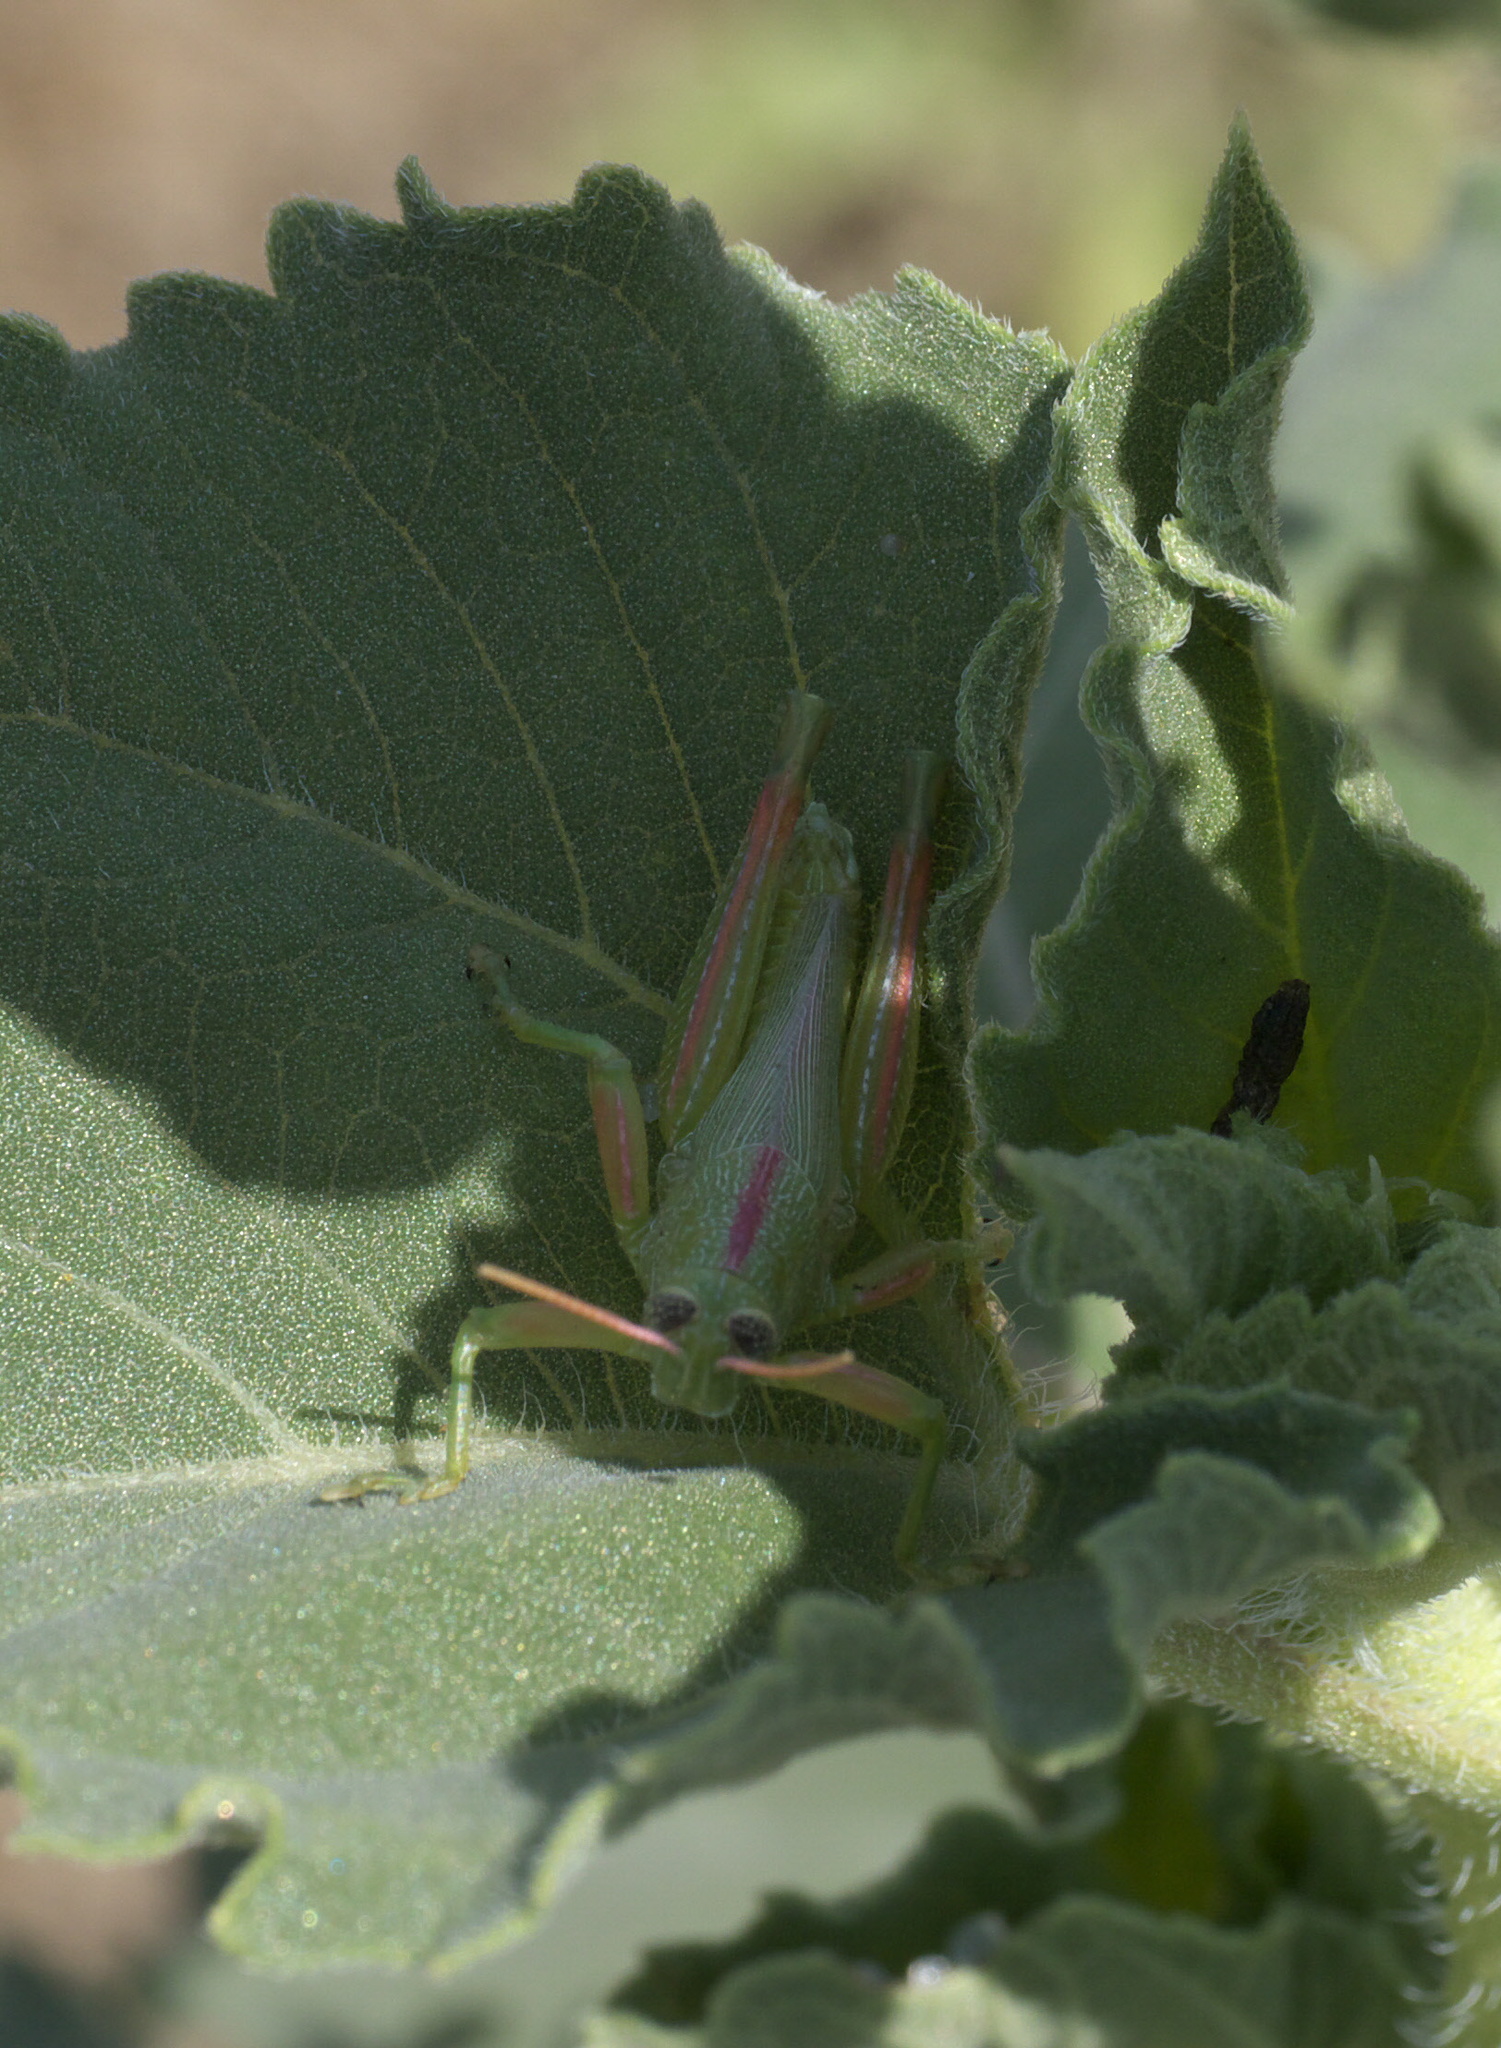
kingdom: Animalia
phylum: Arthropoda
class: Insecta
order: Orthoptera
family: Acrididae
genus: Hesperotettix
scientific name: Hesperotettix speciosus
